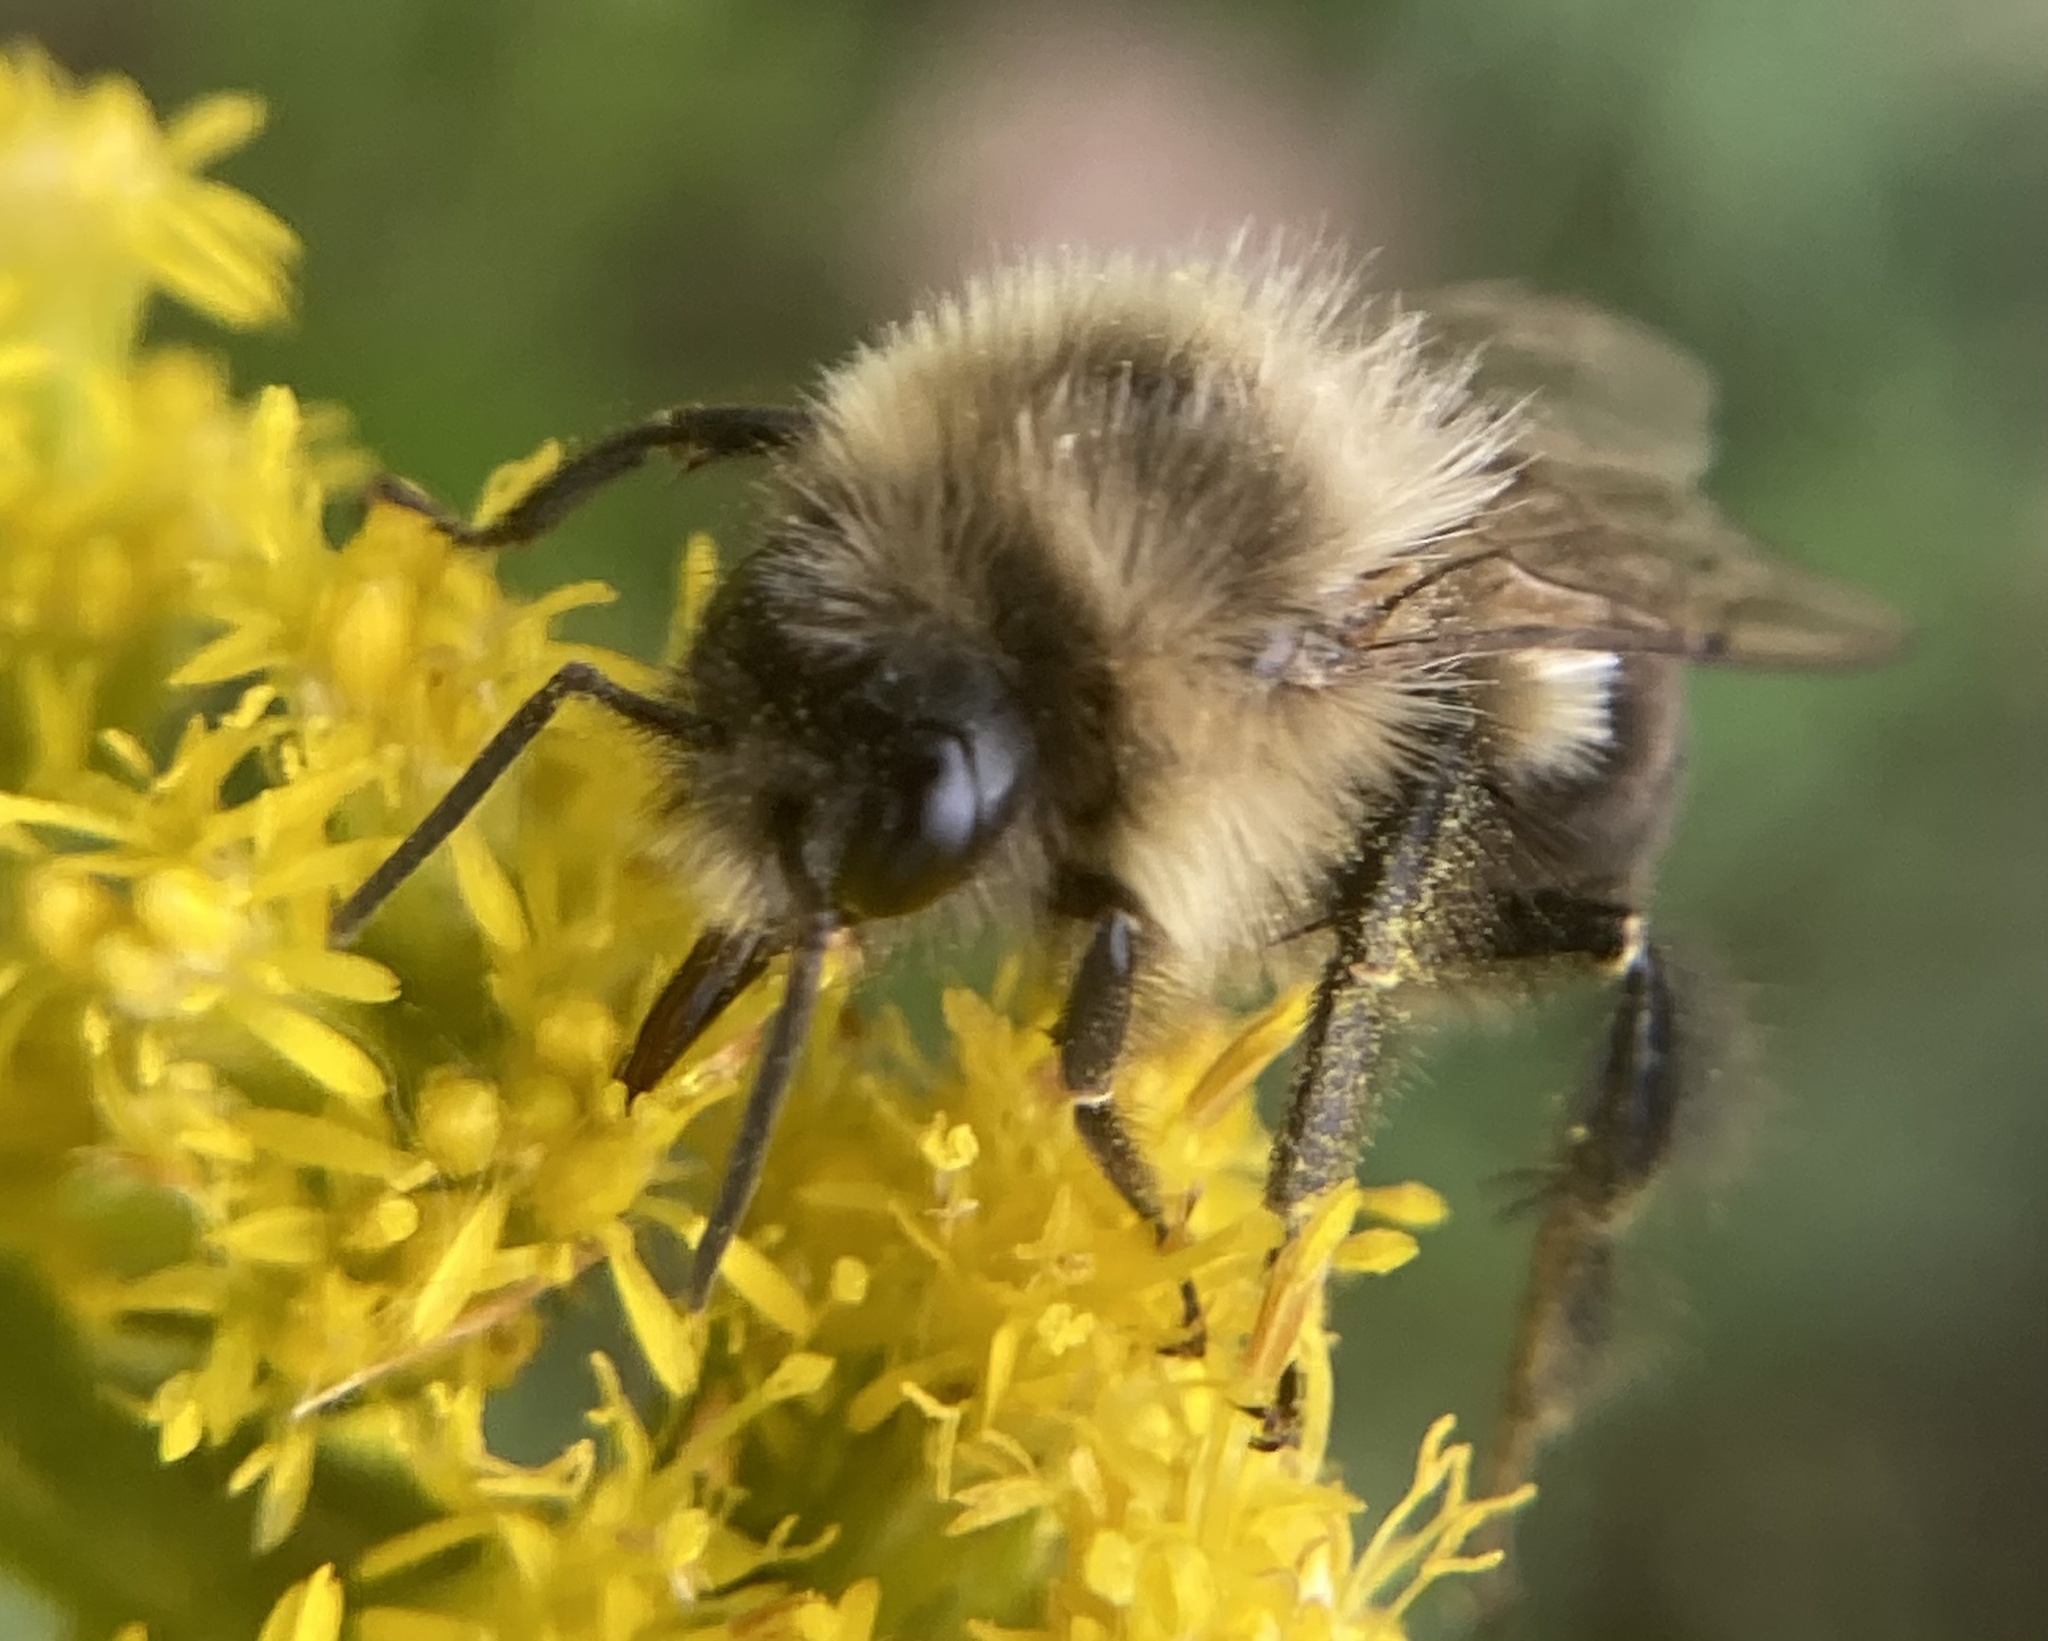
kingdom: Animalia
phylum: Arthropoda
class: Insecta
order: Hymenoptera
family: Apidae
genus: Bombus
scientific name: Bombus impatiens
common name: Common eastern bumble bee
